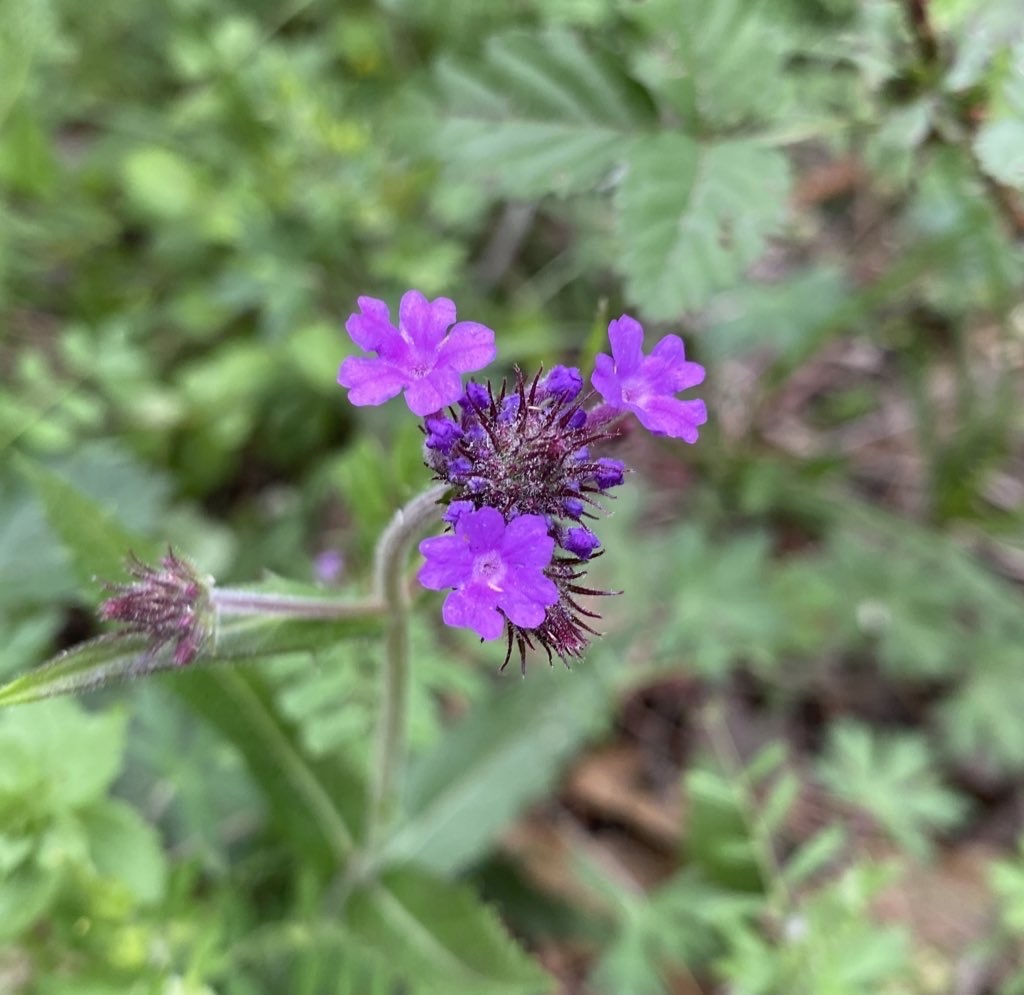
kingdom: Plantae
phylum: Tracheophyta
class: Magnoliopsida
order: Lamiales
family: Verbenaceae
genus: Verbena
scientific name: Verbena rigida
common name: Slender vervain
